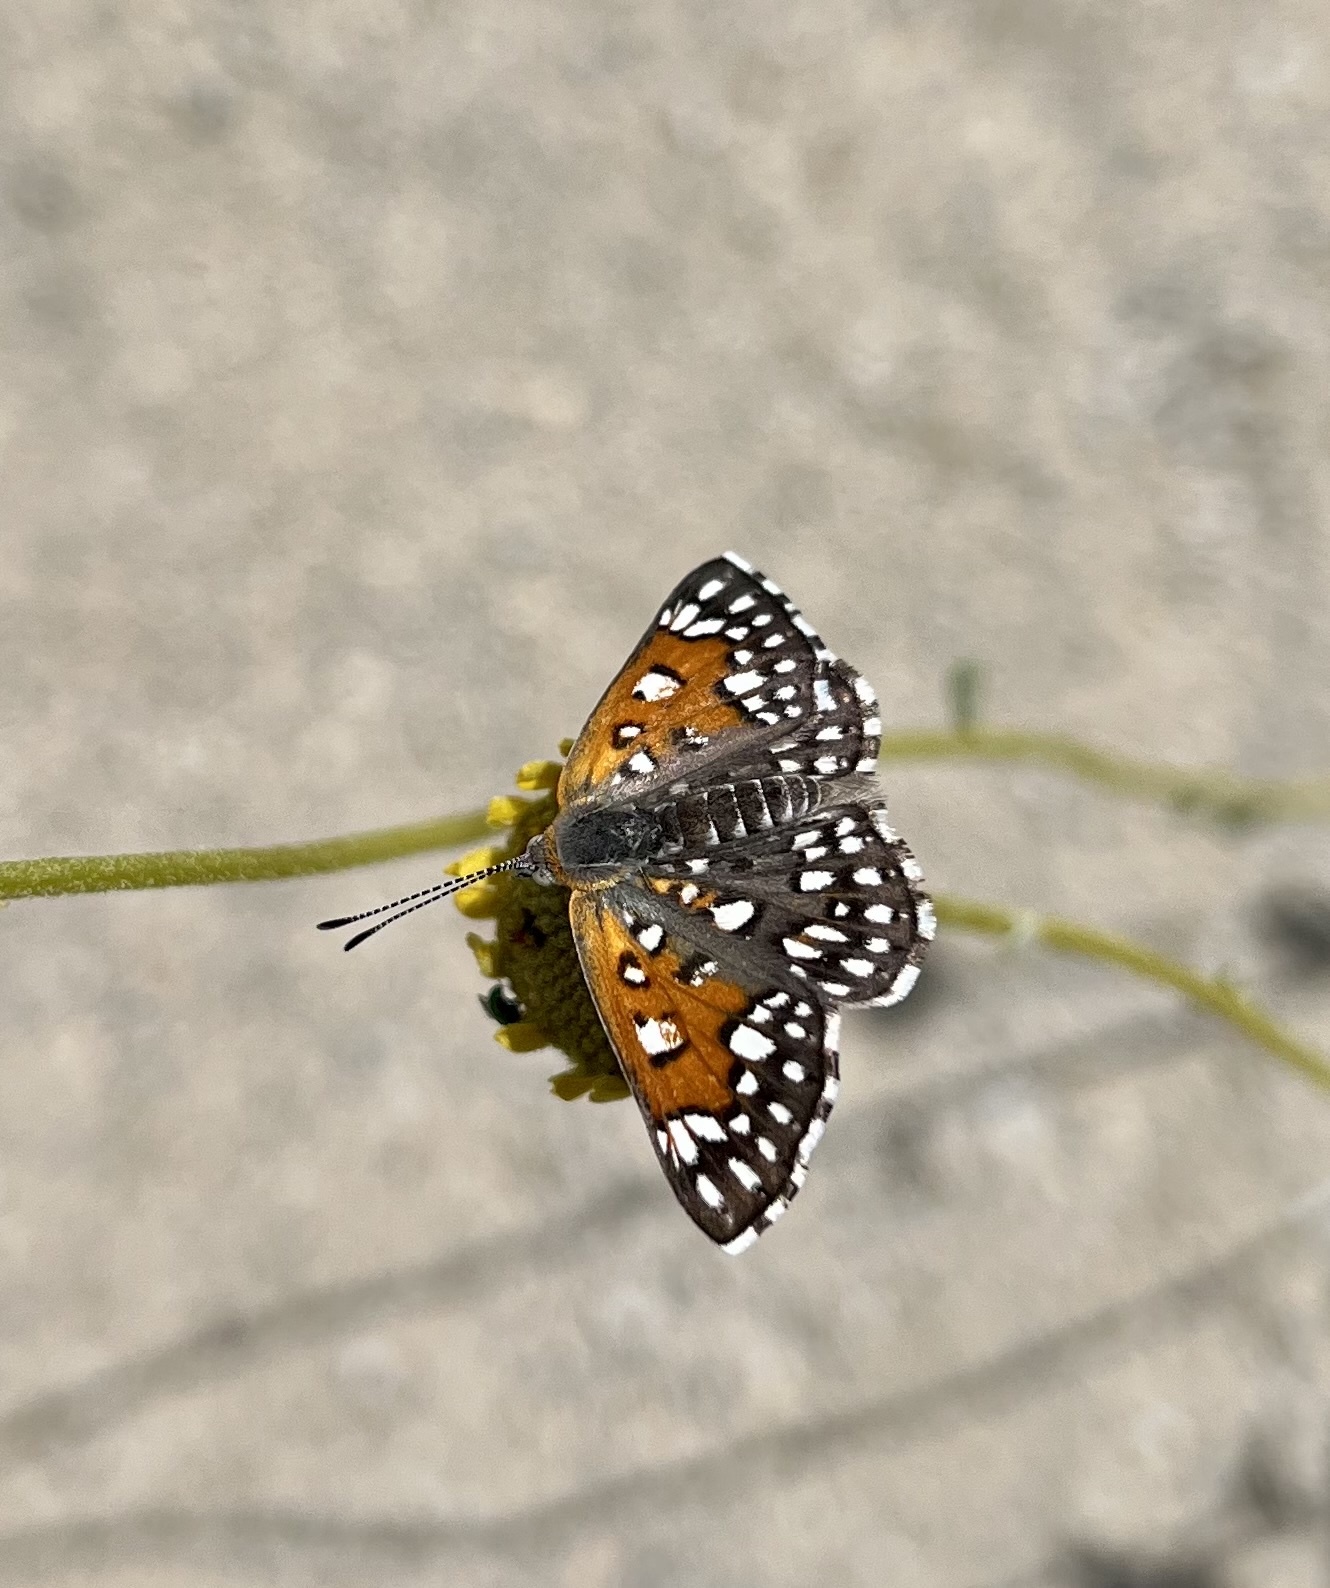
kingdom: Animalia
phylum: Arthropoda
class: Insecta
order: Lepidoptera
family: Riodinidae
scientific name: Riodinidae
